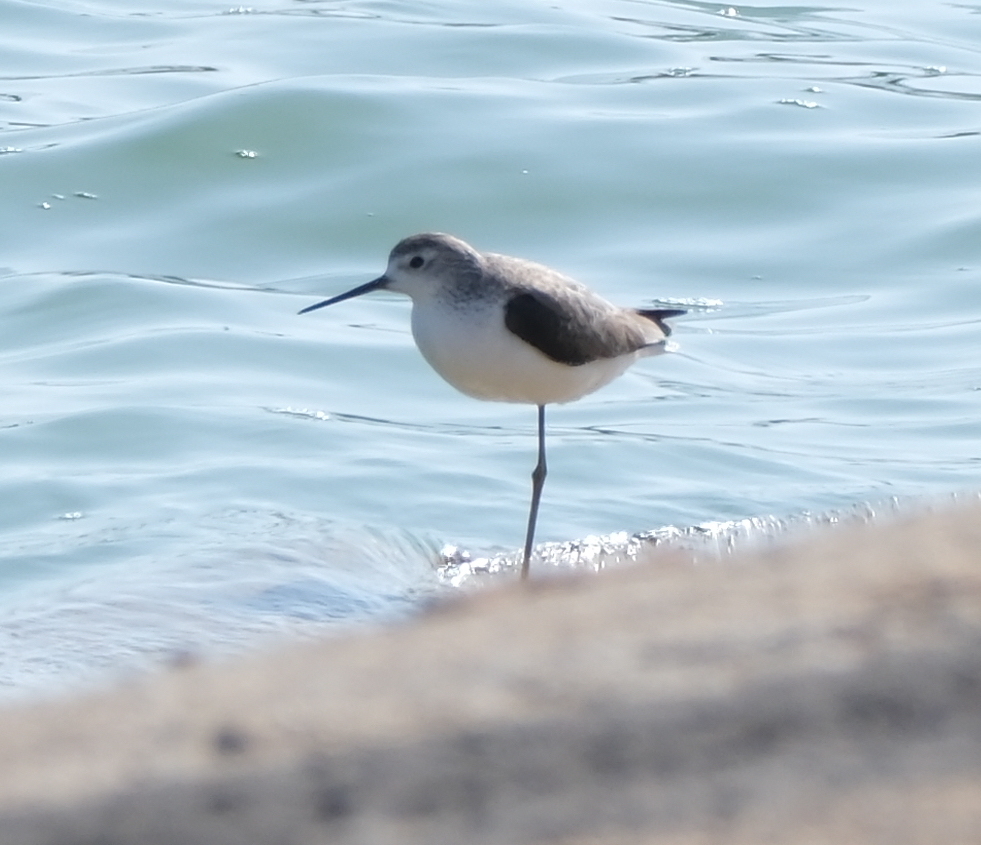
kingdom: Animalia
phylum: Chordata
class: Aves
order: Charadriiformes
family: Scolopacidae
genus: Tringa
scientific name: Tringa stagnatilis
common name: Marsh sandpiper
